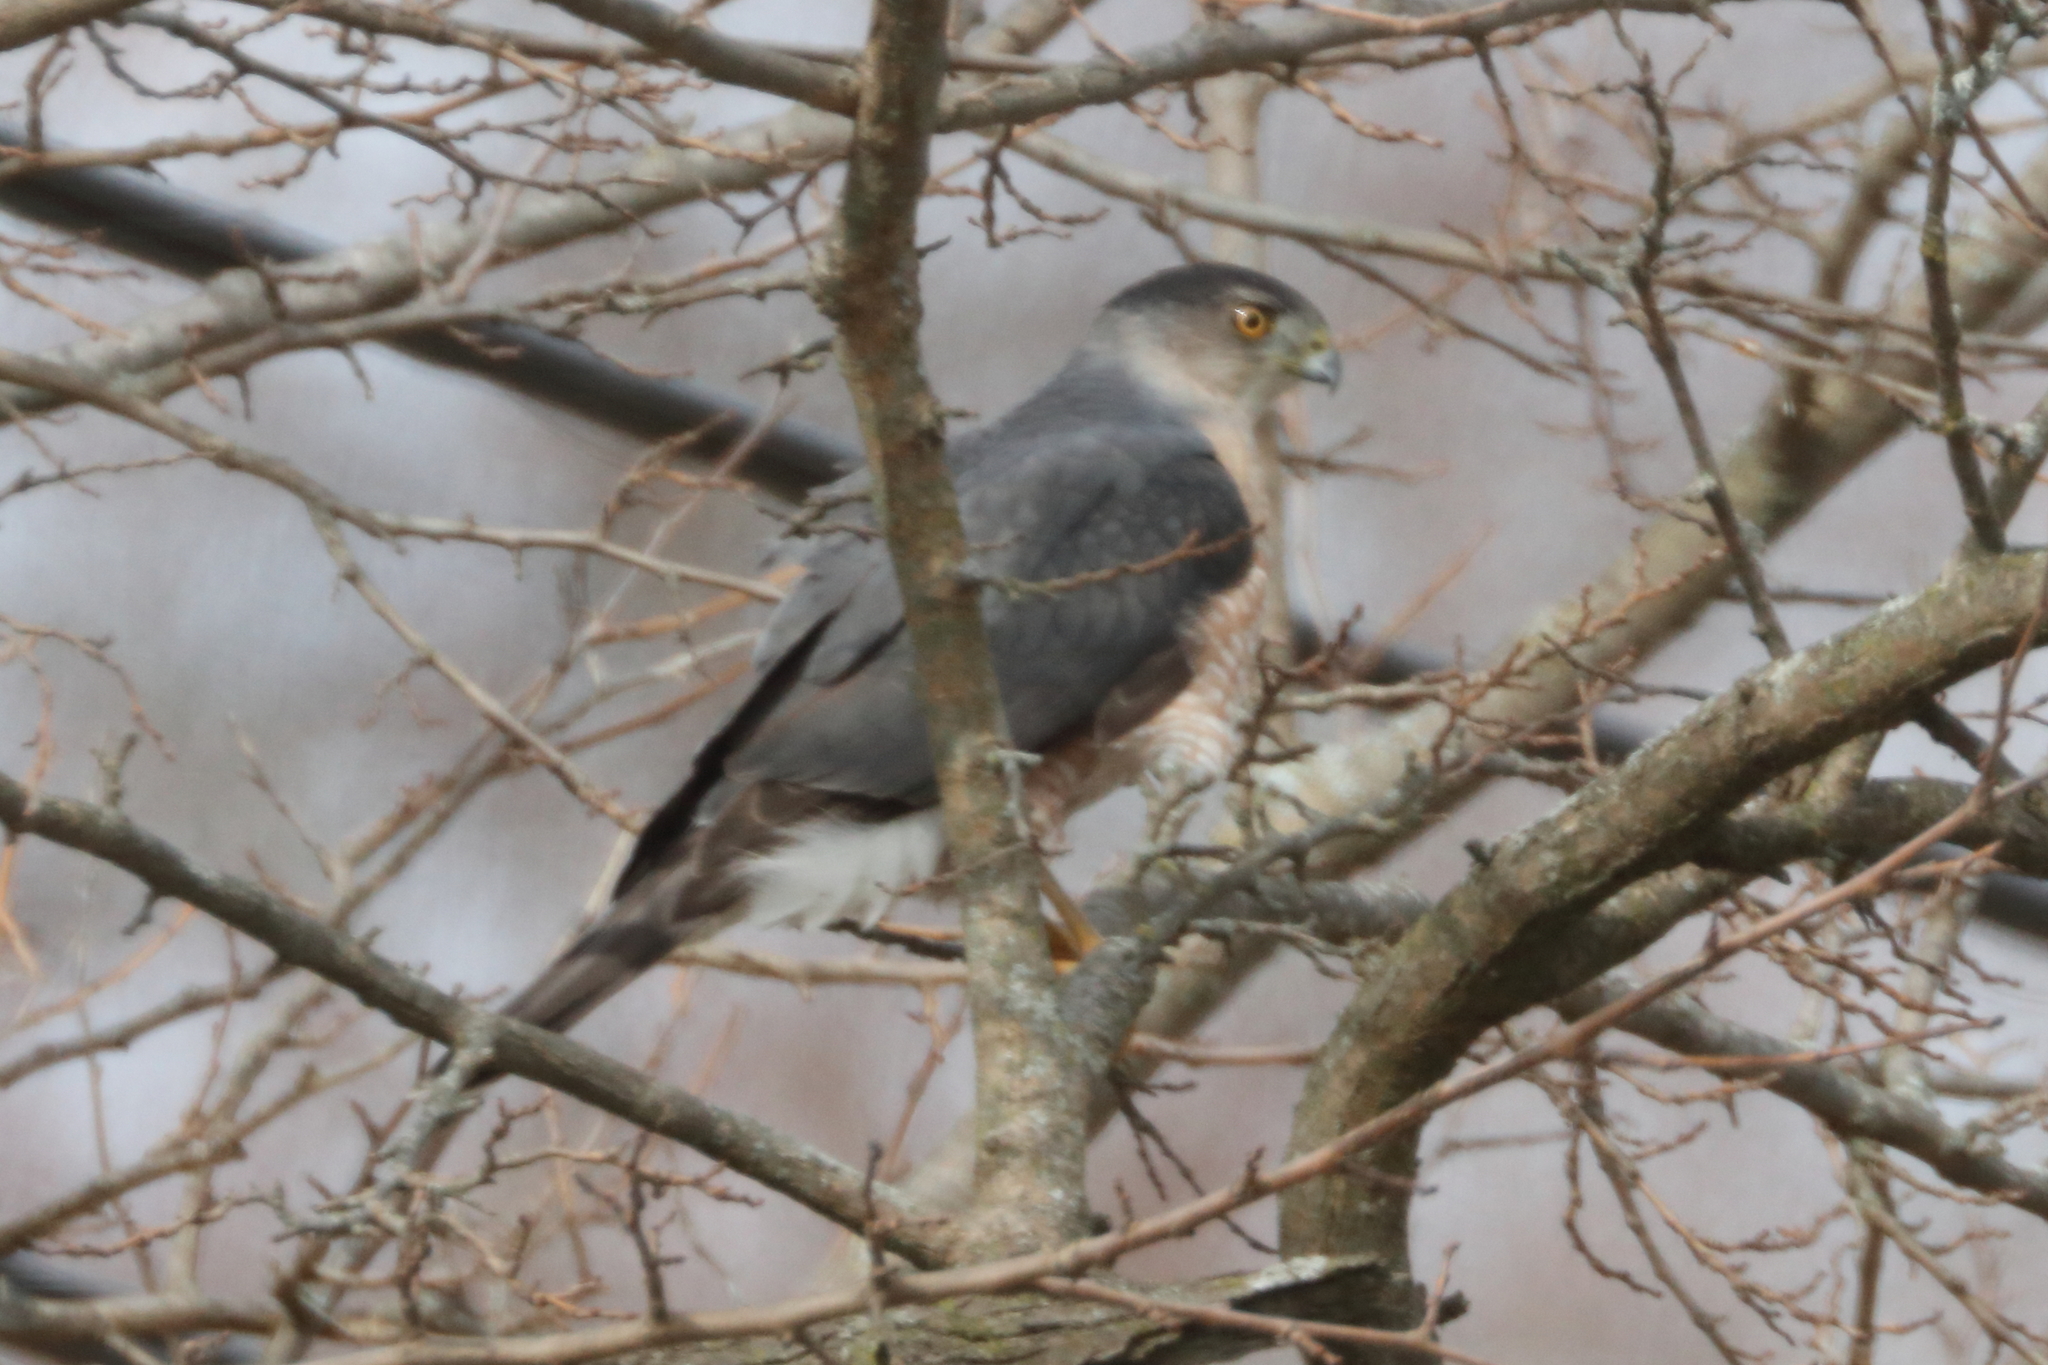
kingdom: Animalia
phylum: Chordata
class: Aves
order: Accipitriformes
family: Accipitridae
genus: Accipiter
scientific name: Accipiter cooperii
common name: Cooper's hawk
